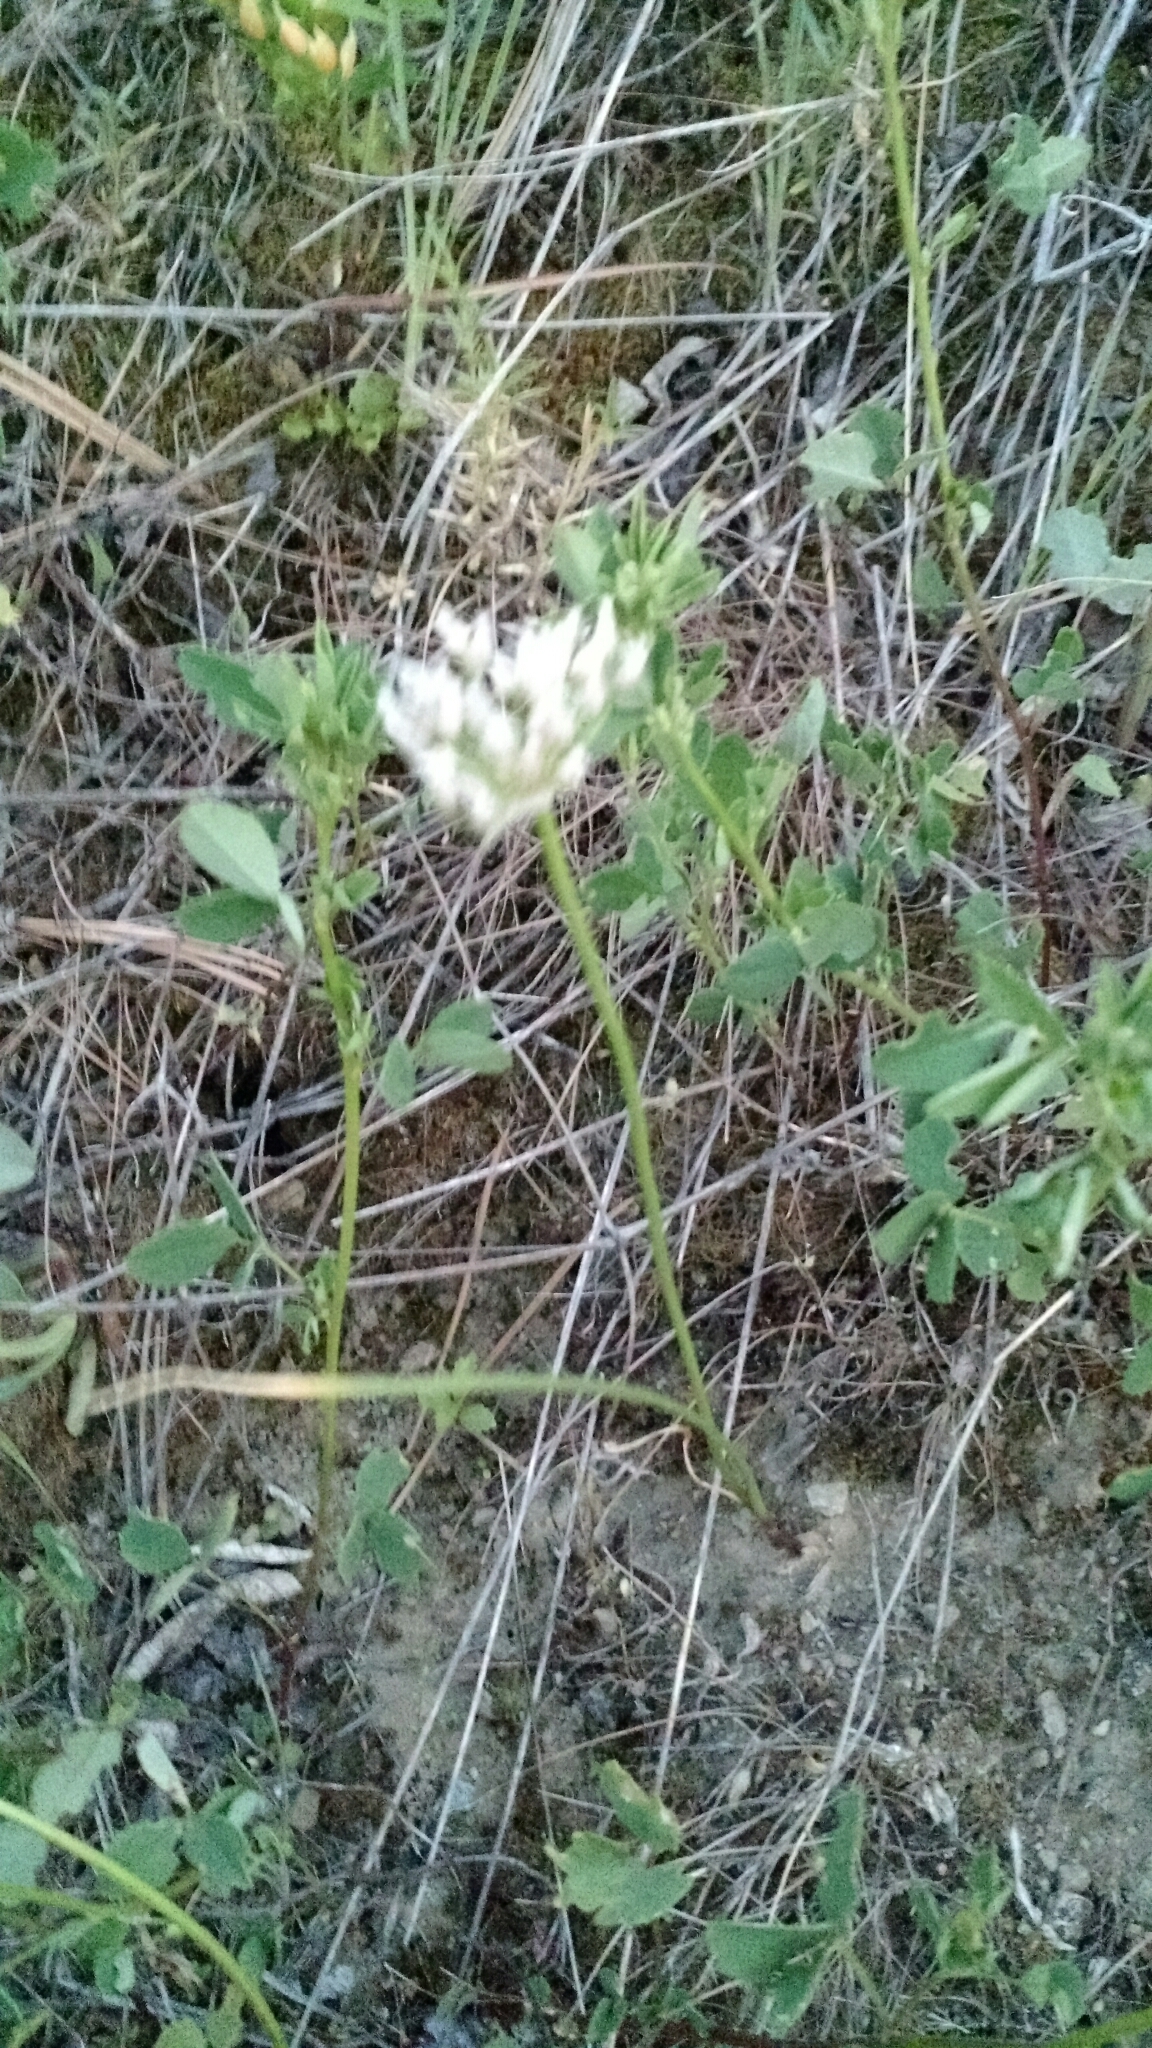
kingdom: Plantae
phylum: Tracheophyta
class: Liliopsida
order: Asparagales
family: Amaryllidaceae
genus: Allium
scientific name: Allium textile
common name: Prairie onion
